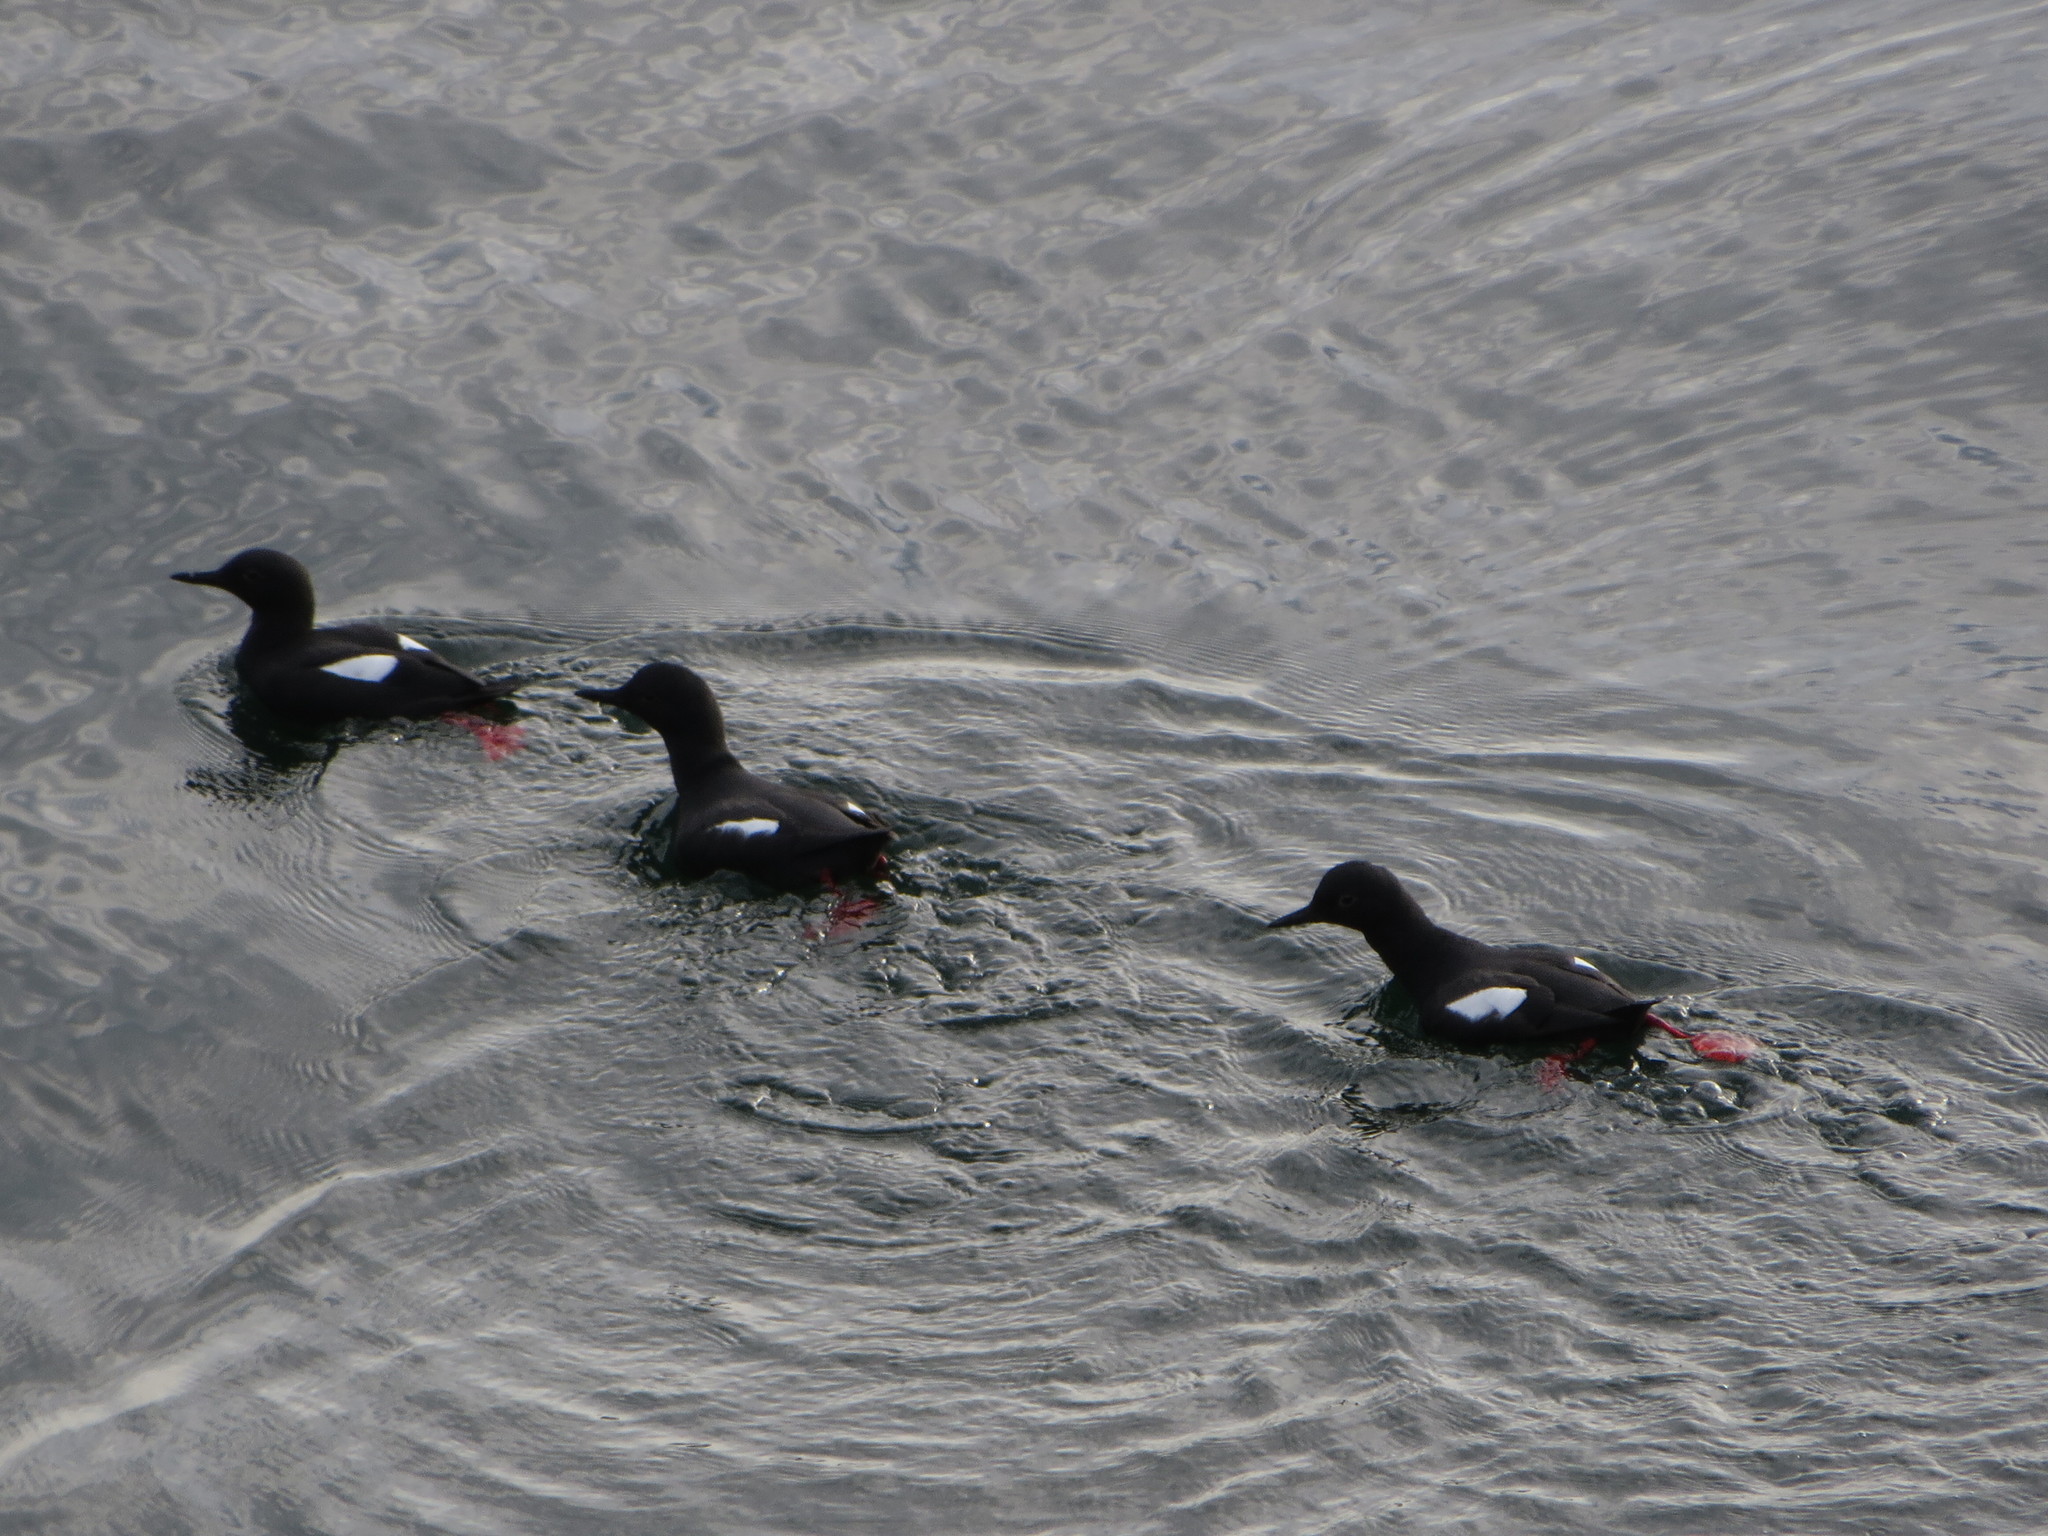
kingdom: Animalia
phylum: Chordata
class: Aves
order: Charadriiformes
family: Alcidae
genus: Cepphus
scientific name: Cepphus columba
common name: Pigeon guillemot
